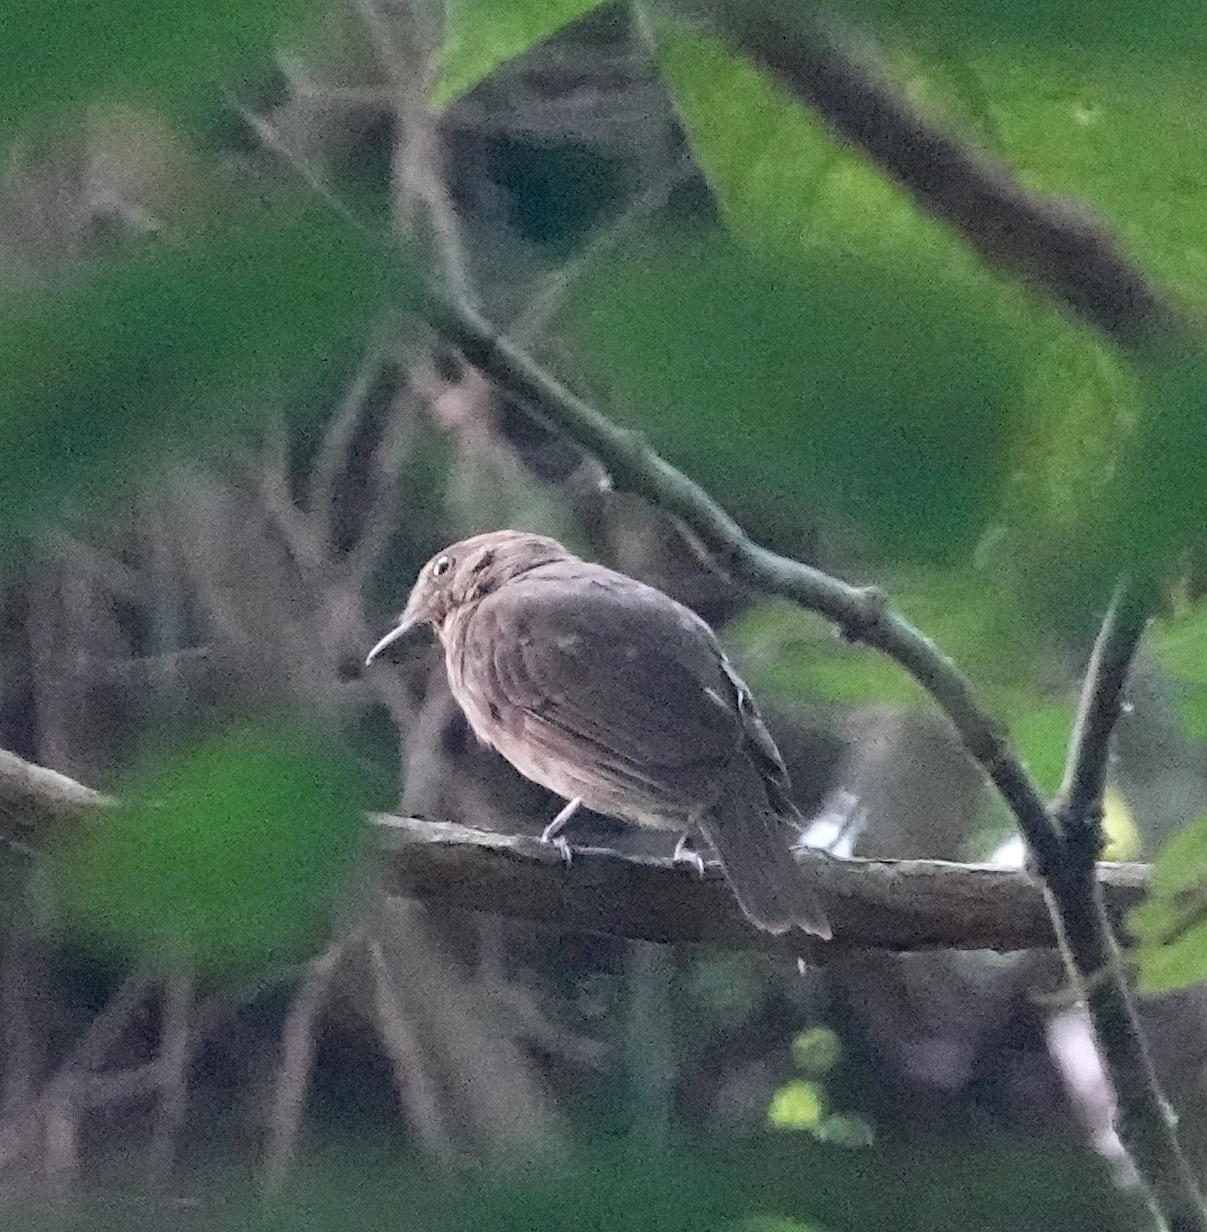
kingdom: Animalia
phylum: Chordata
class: Aves
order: Passeriformes
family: Cotingidae
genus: Schiffornis
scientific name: Schiffornis turdina
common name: Brown-winged schiffornis
